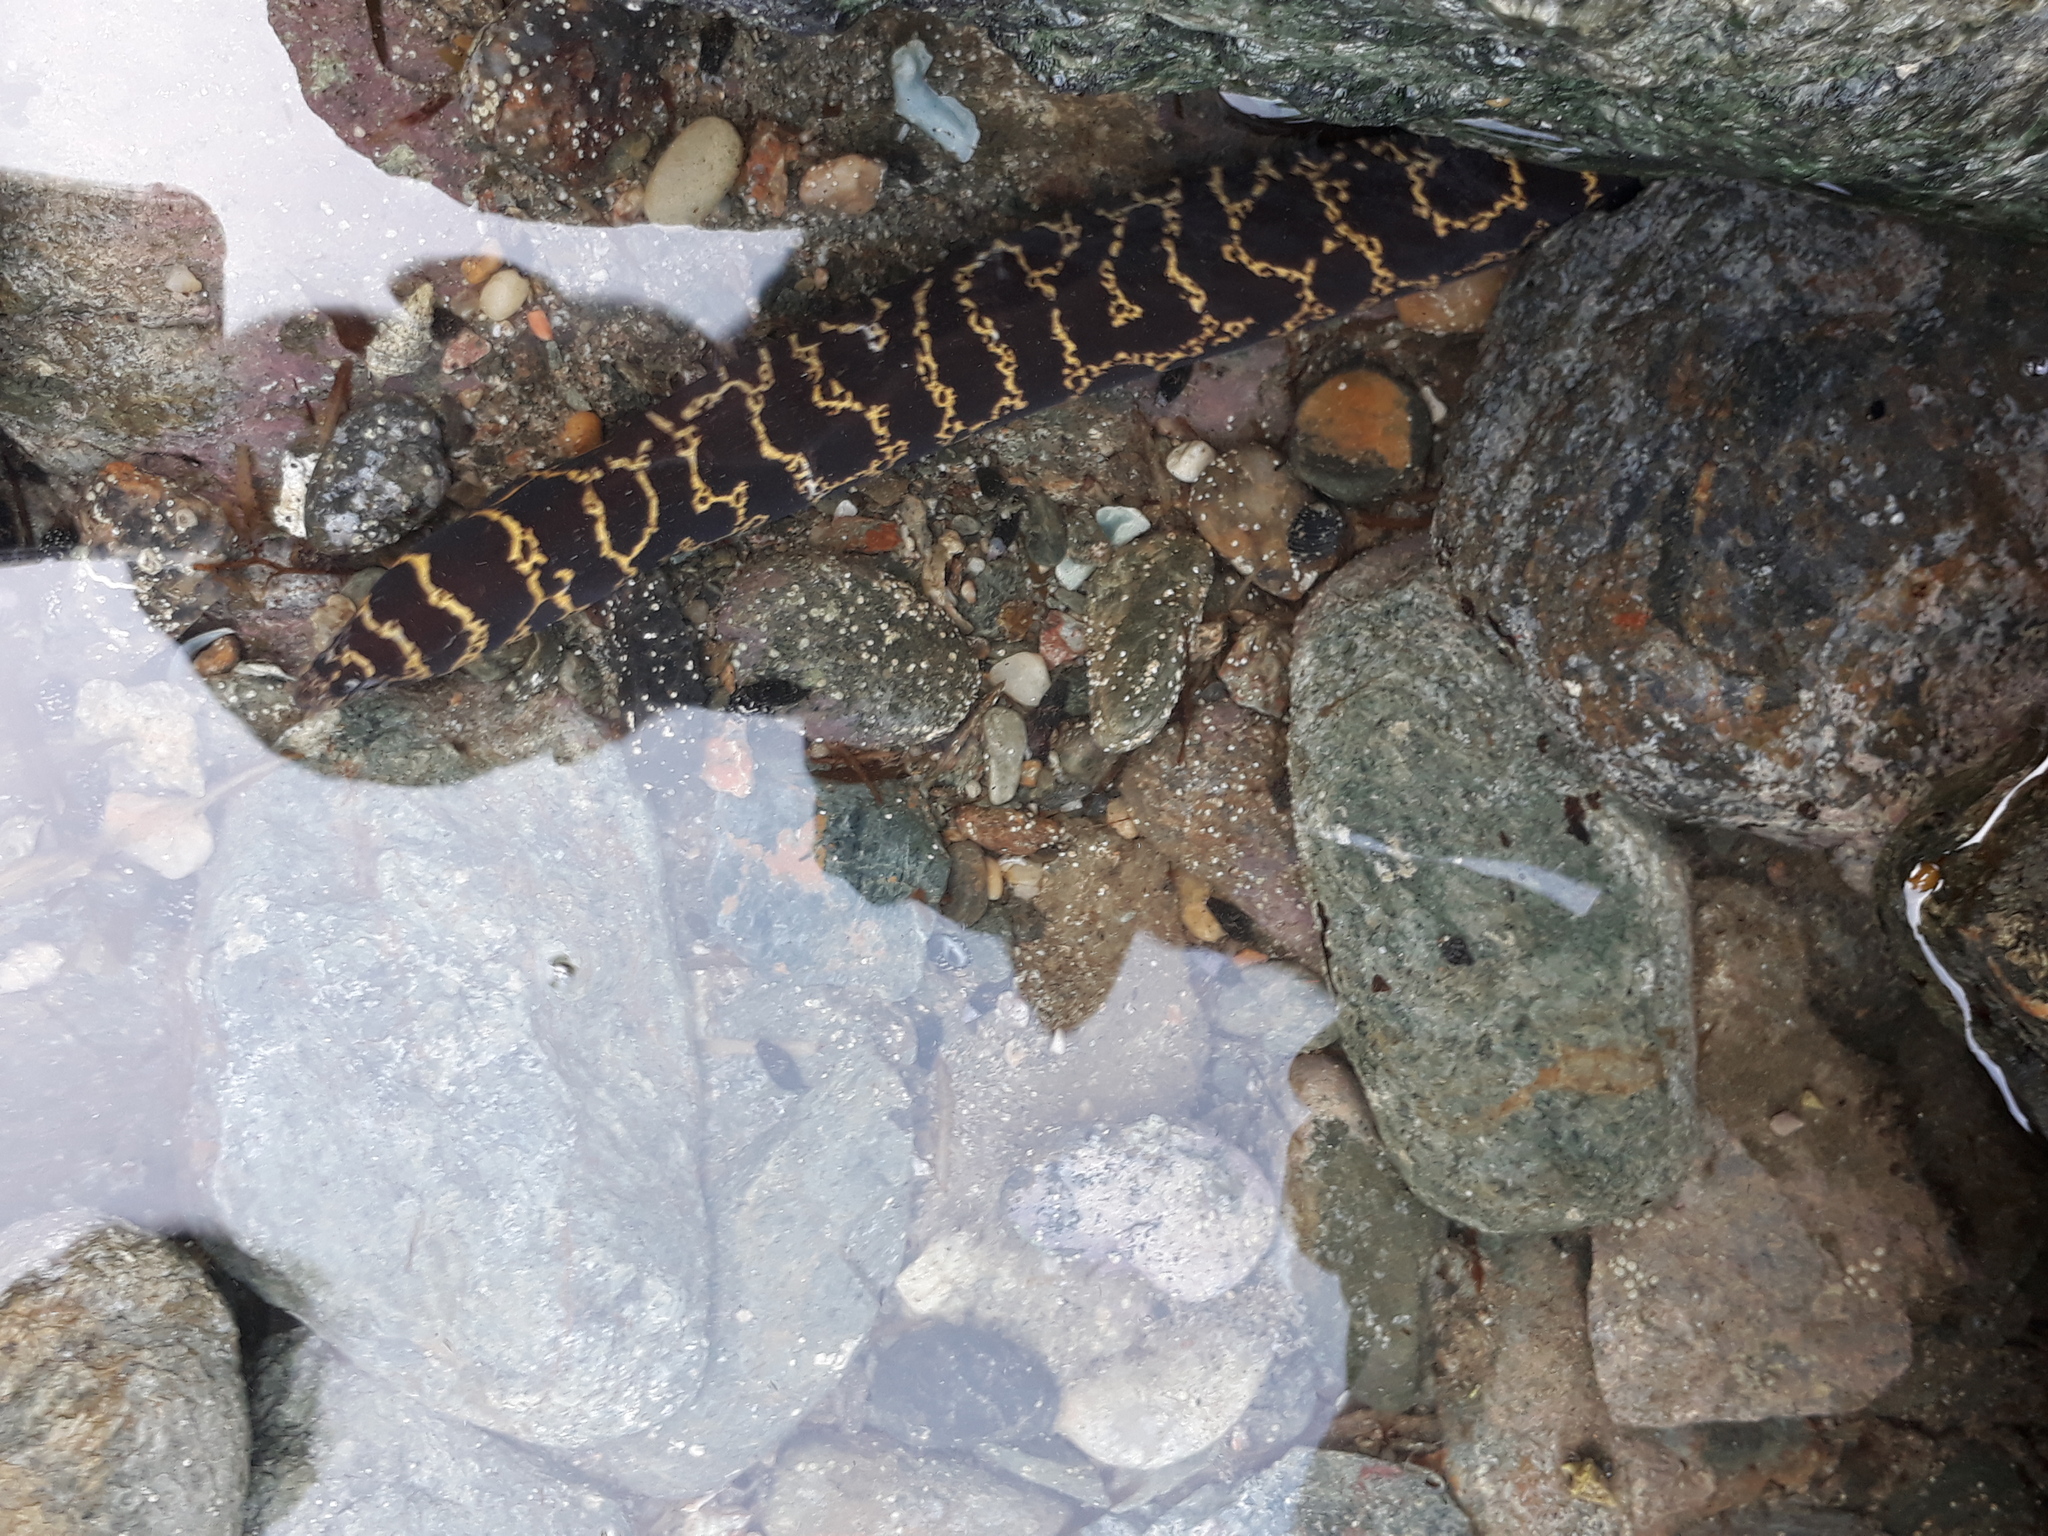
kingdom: Animalia
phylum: Chordata
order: Anguilliformes
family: Muraenidae
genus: Echidna
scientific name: Echidna catenata
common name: Chain moray
